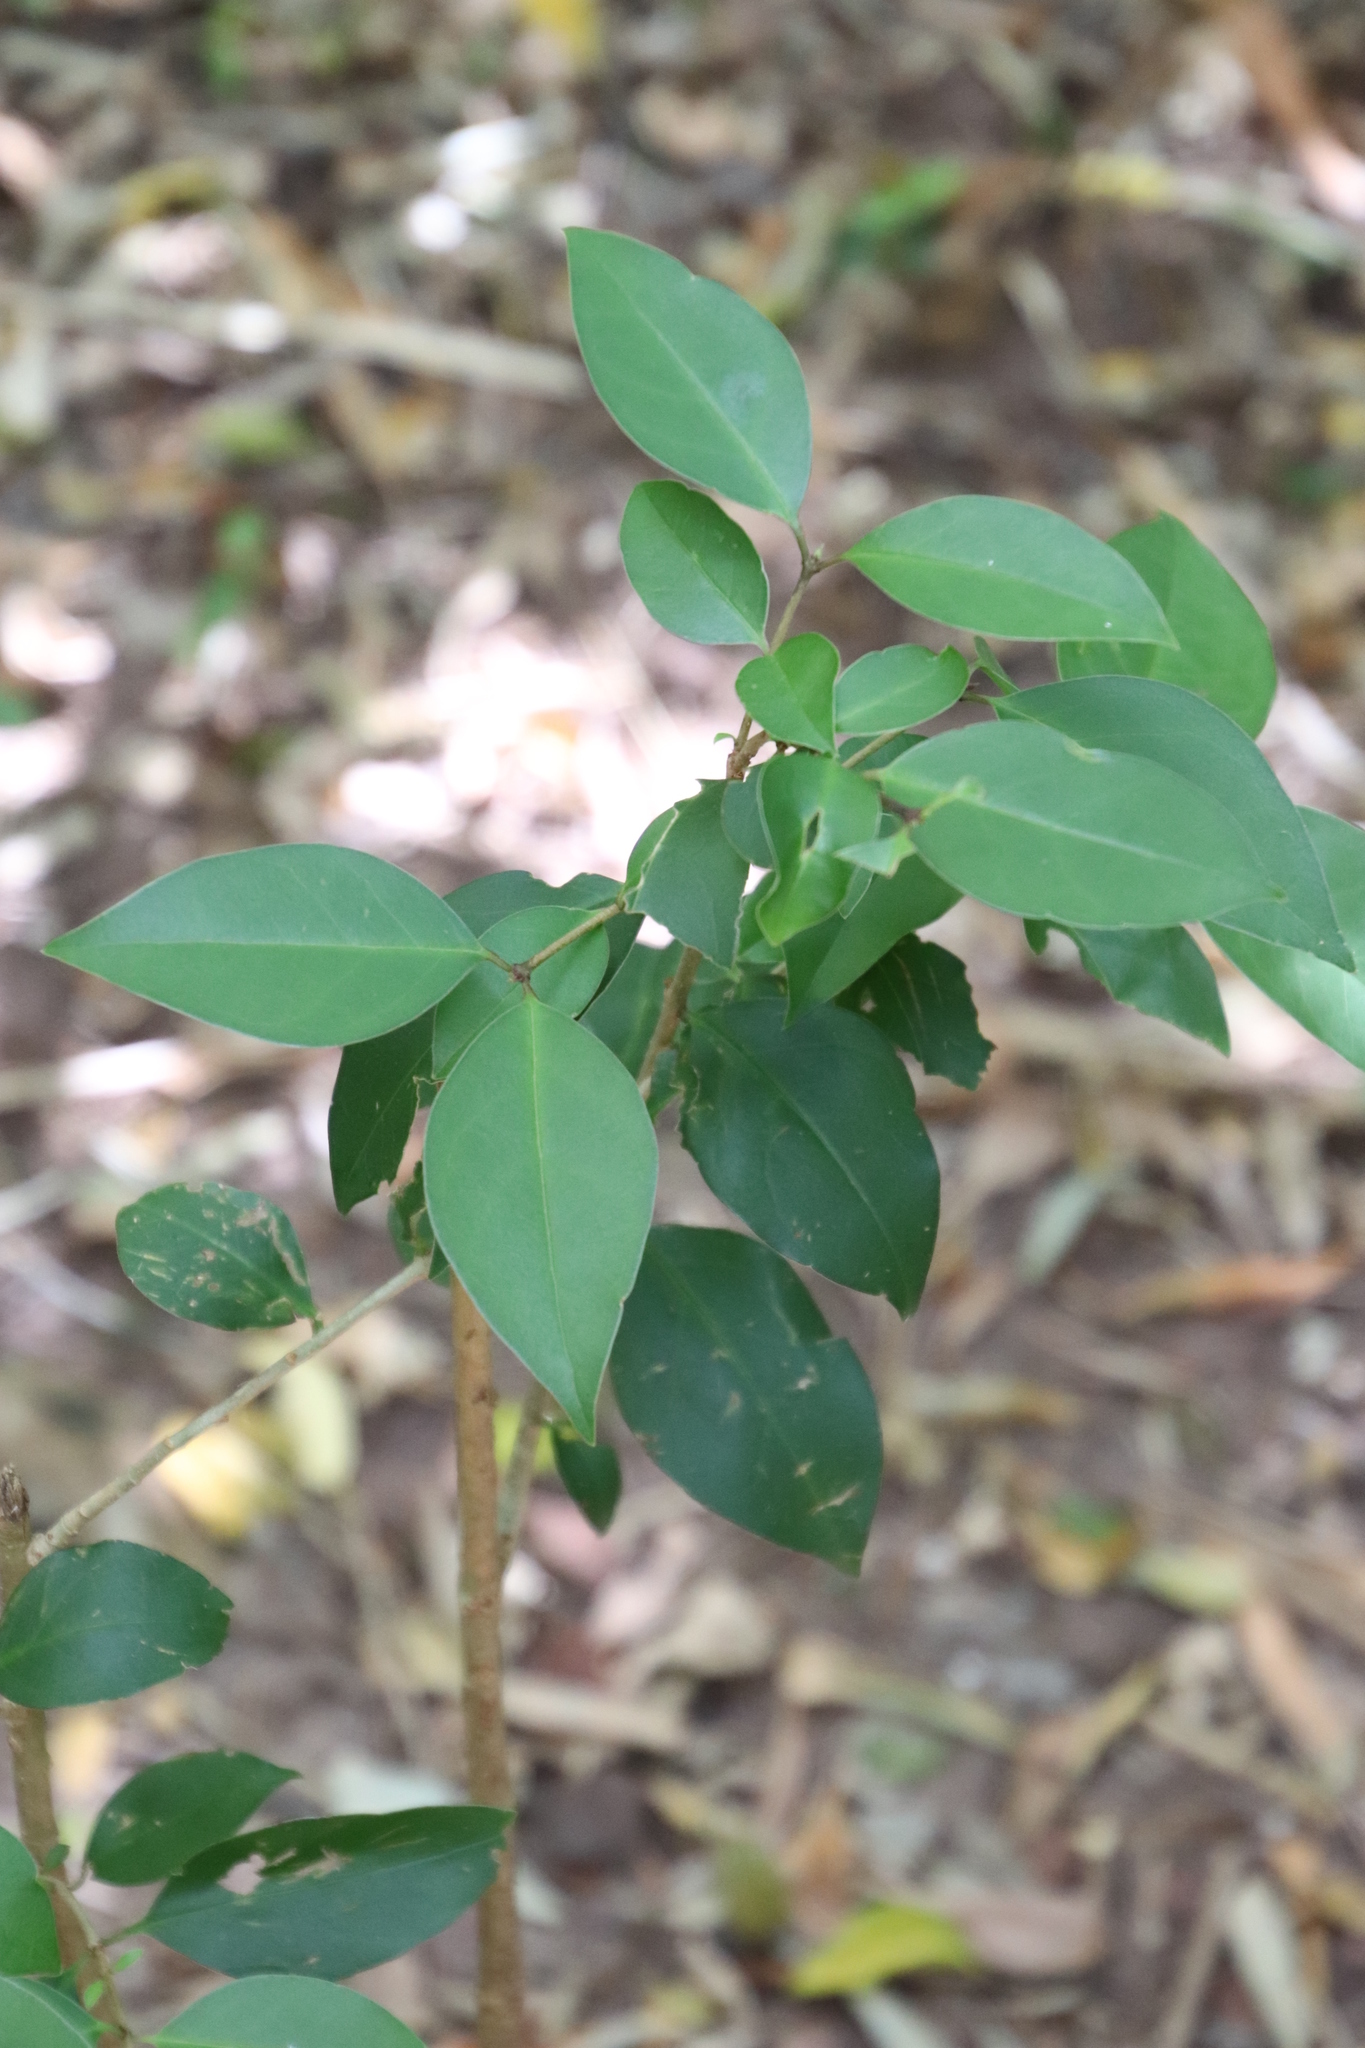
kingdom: Plantae
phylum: Tracheophyta
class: Magnoliopsida
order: Lamiales
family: Oleaceae
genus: Ligustrum
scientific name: Ligustrum lucidum
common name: Glossy privet
